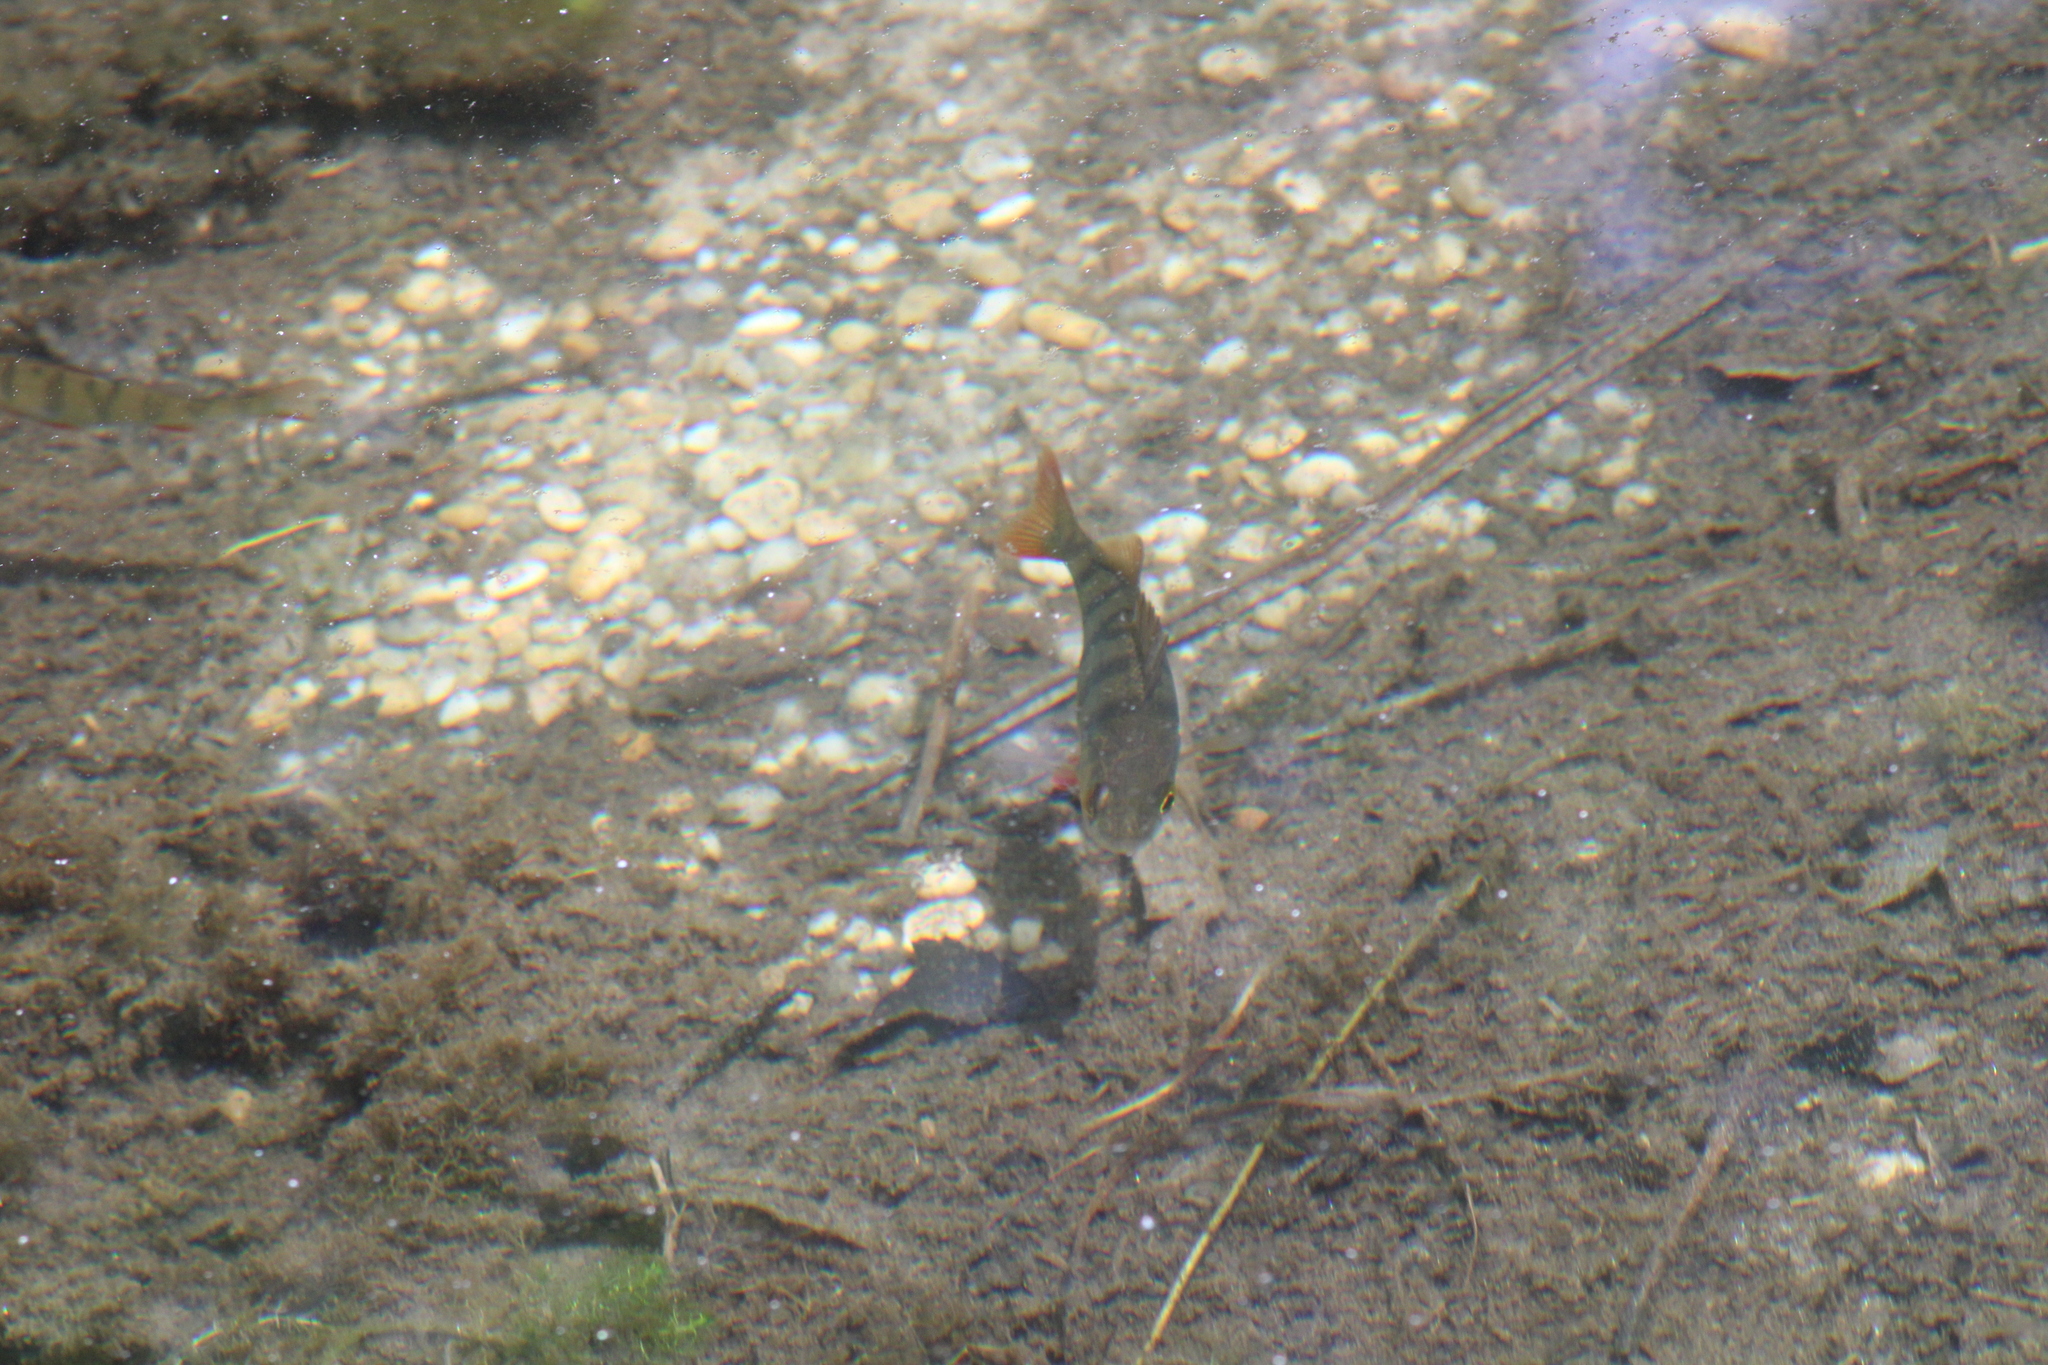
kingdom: Animalia
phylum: Chordata
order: Perciformes
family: Percidae
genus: Perca
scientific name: Perca fluviatilis
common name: Perch
